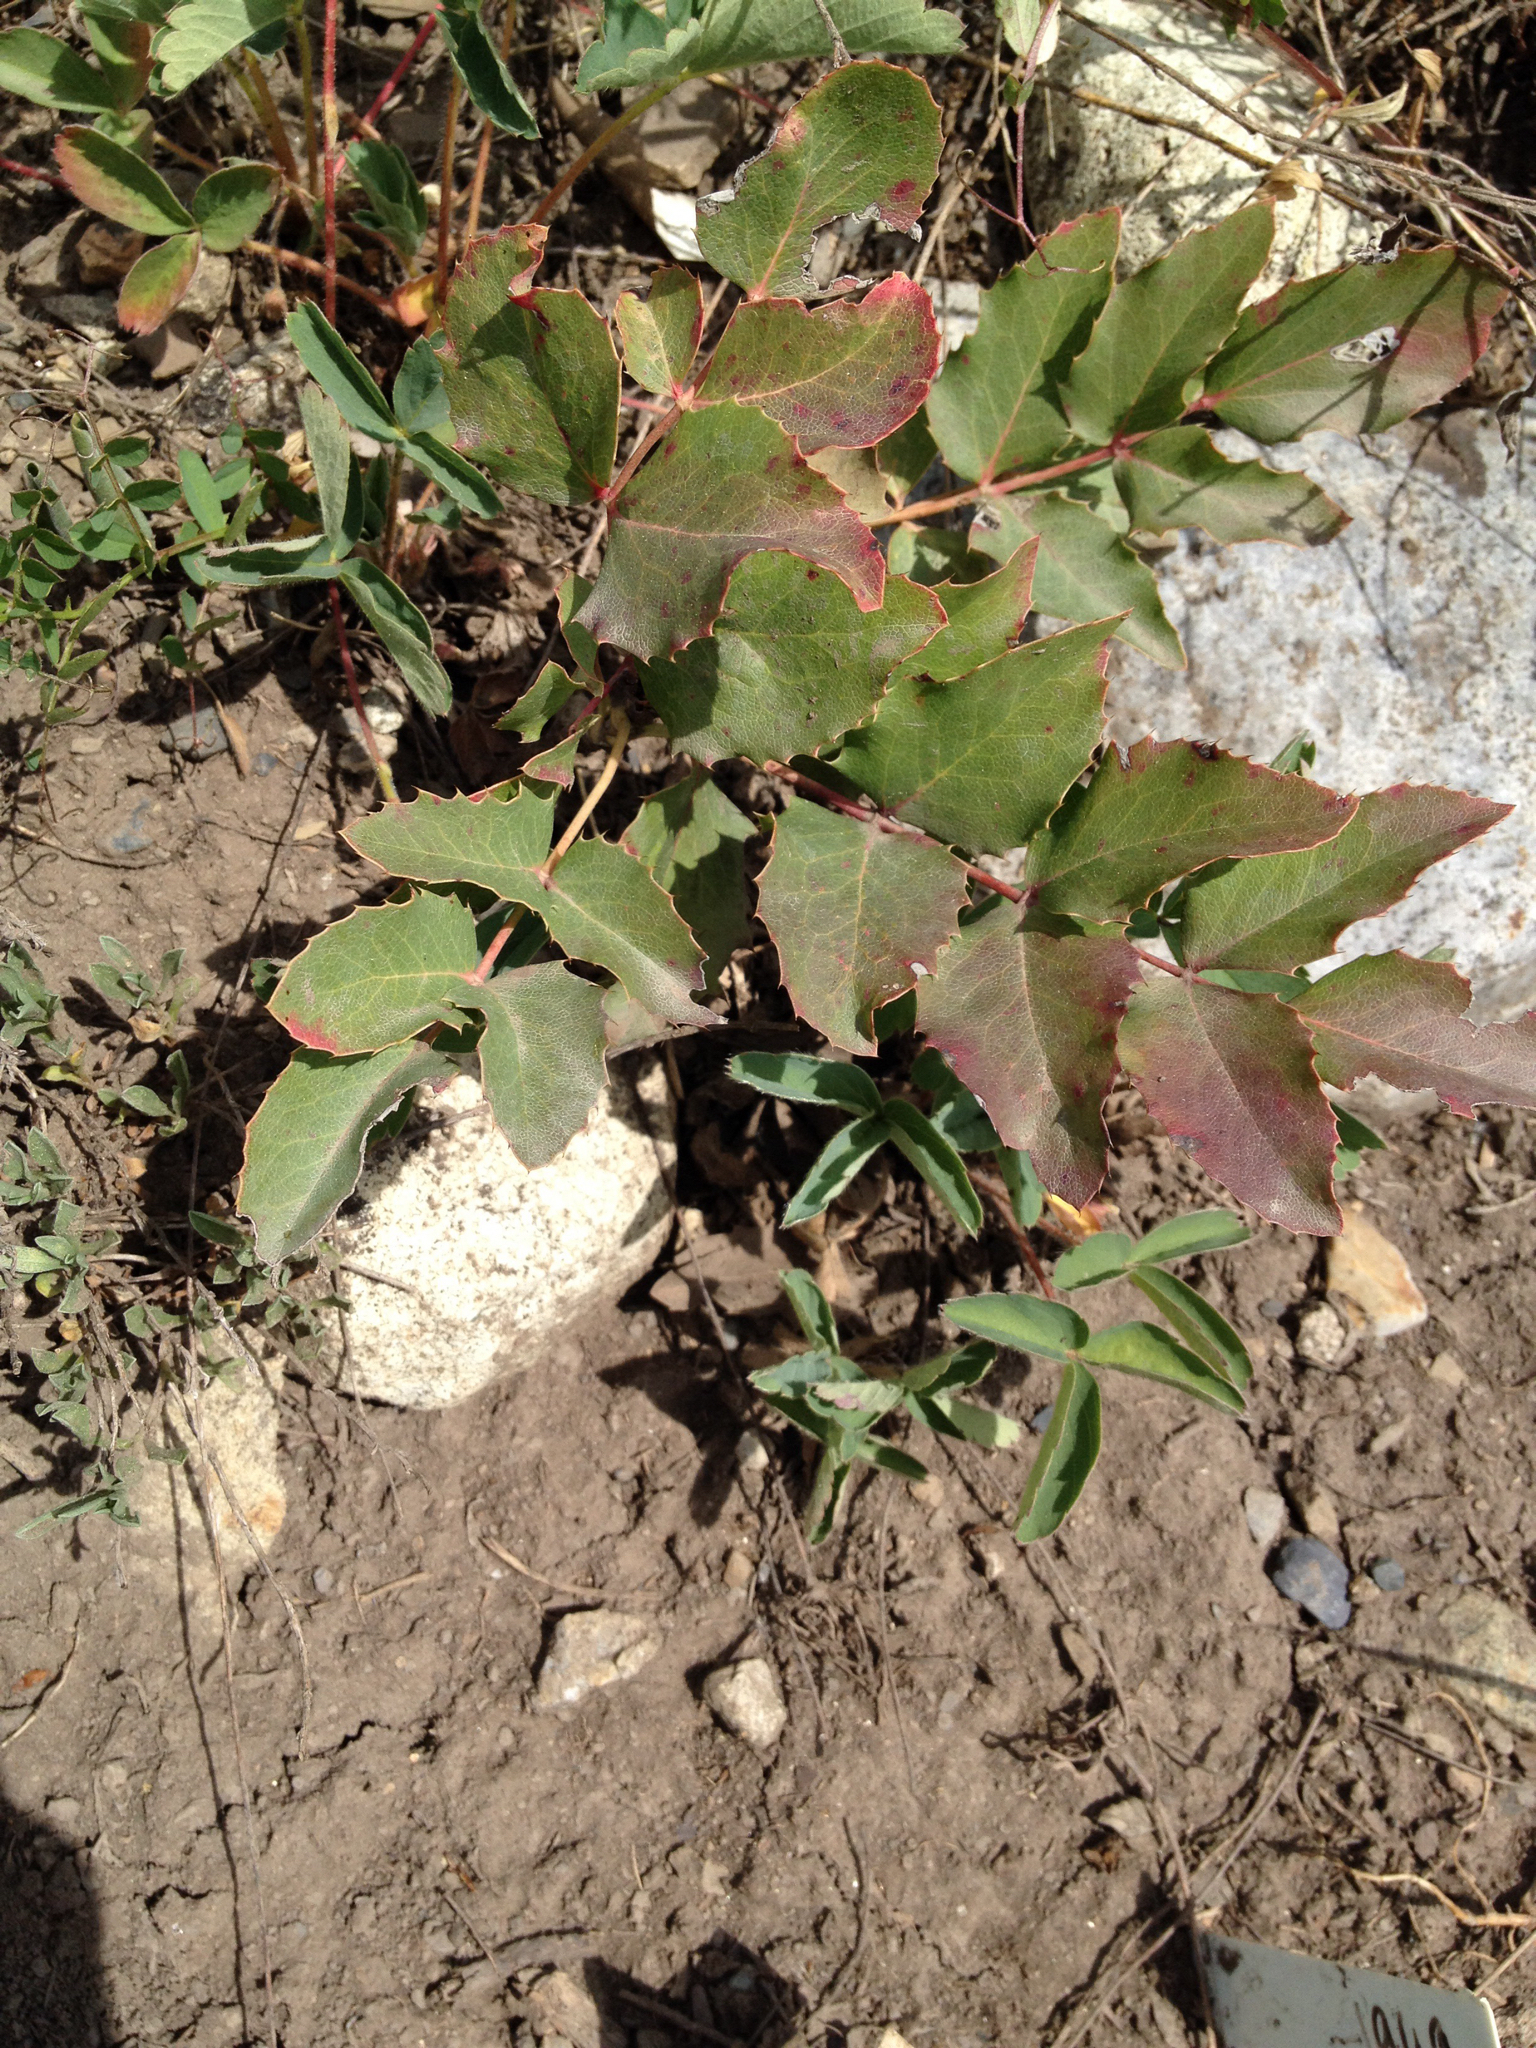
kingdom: Plantae
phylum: Tracheophyta
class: Magnoliopsida
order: Ranunculales
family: Berberidaceae
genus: Mahonia
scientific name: Mahonia repens
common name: Creeping oregon-grape
